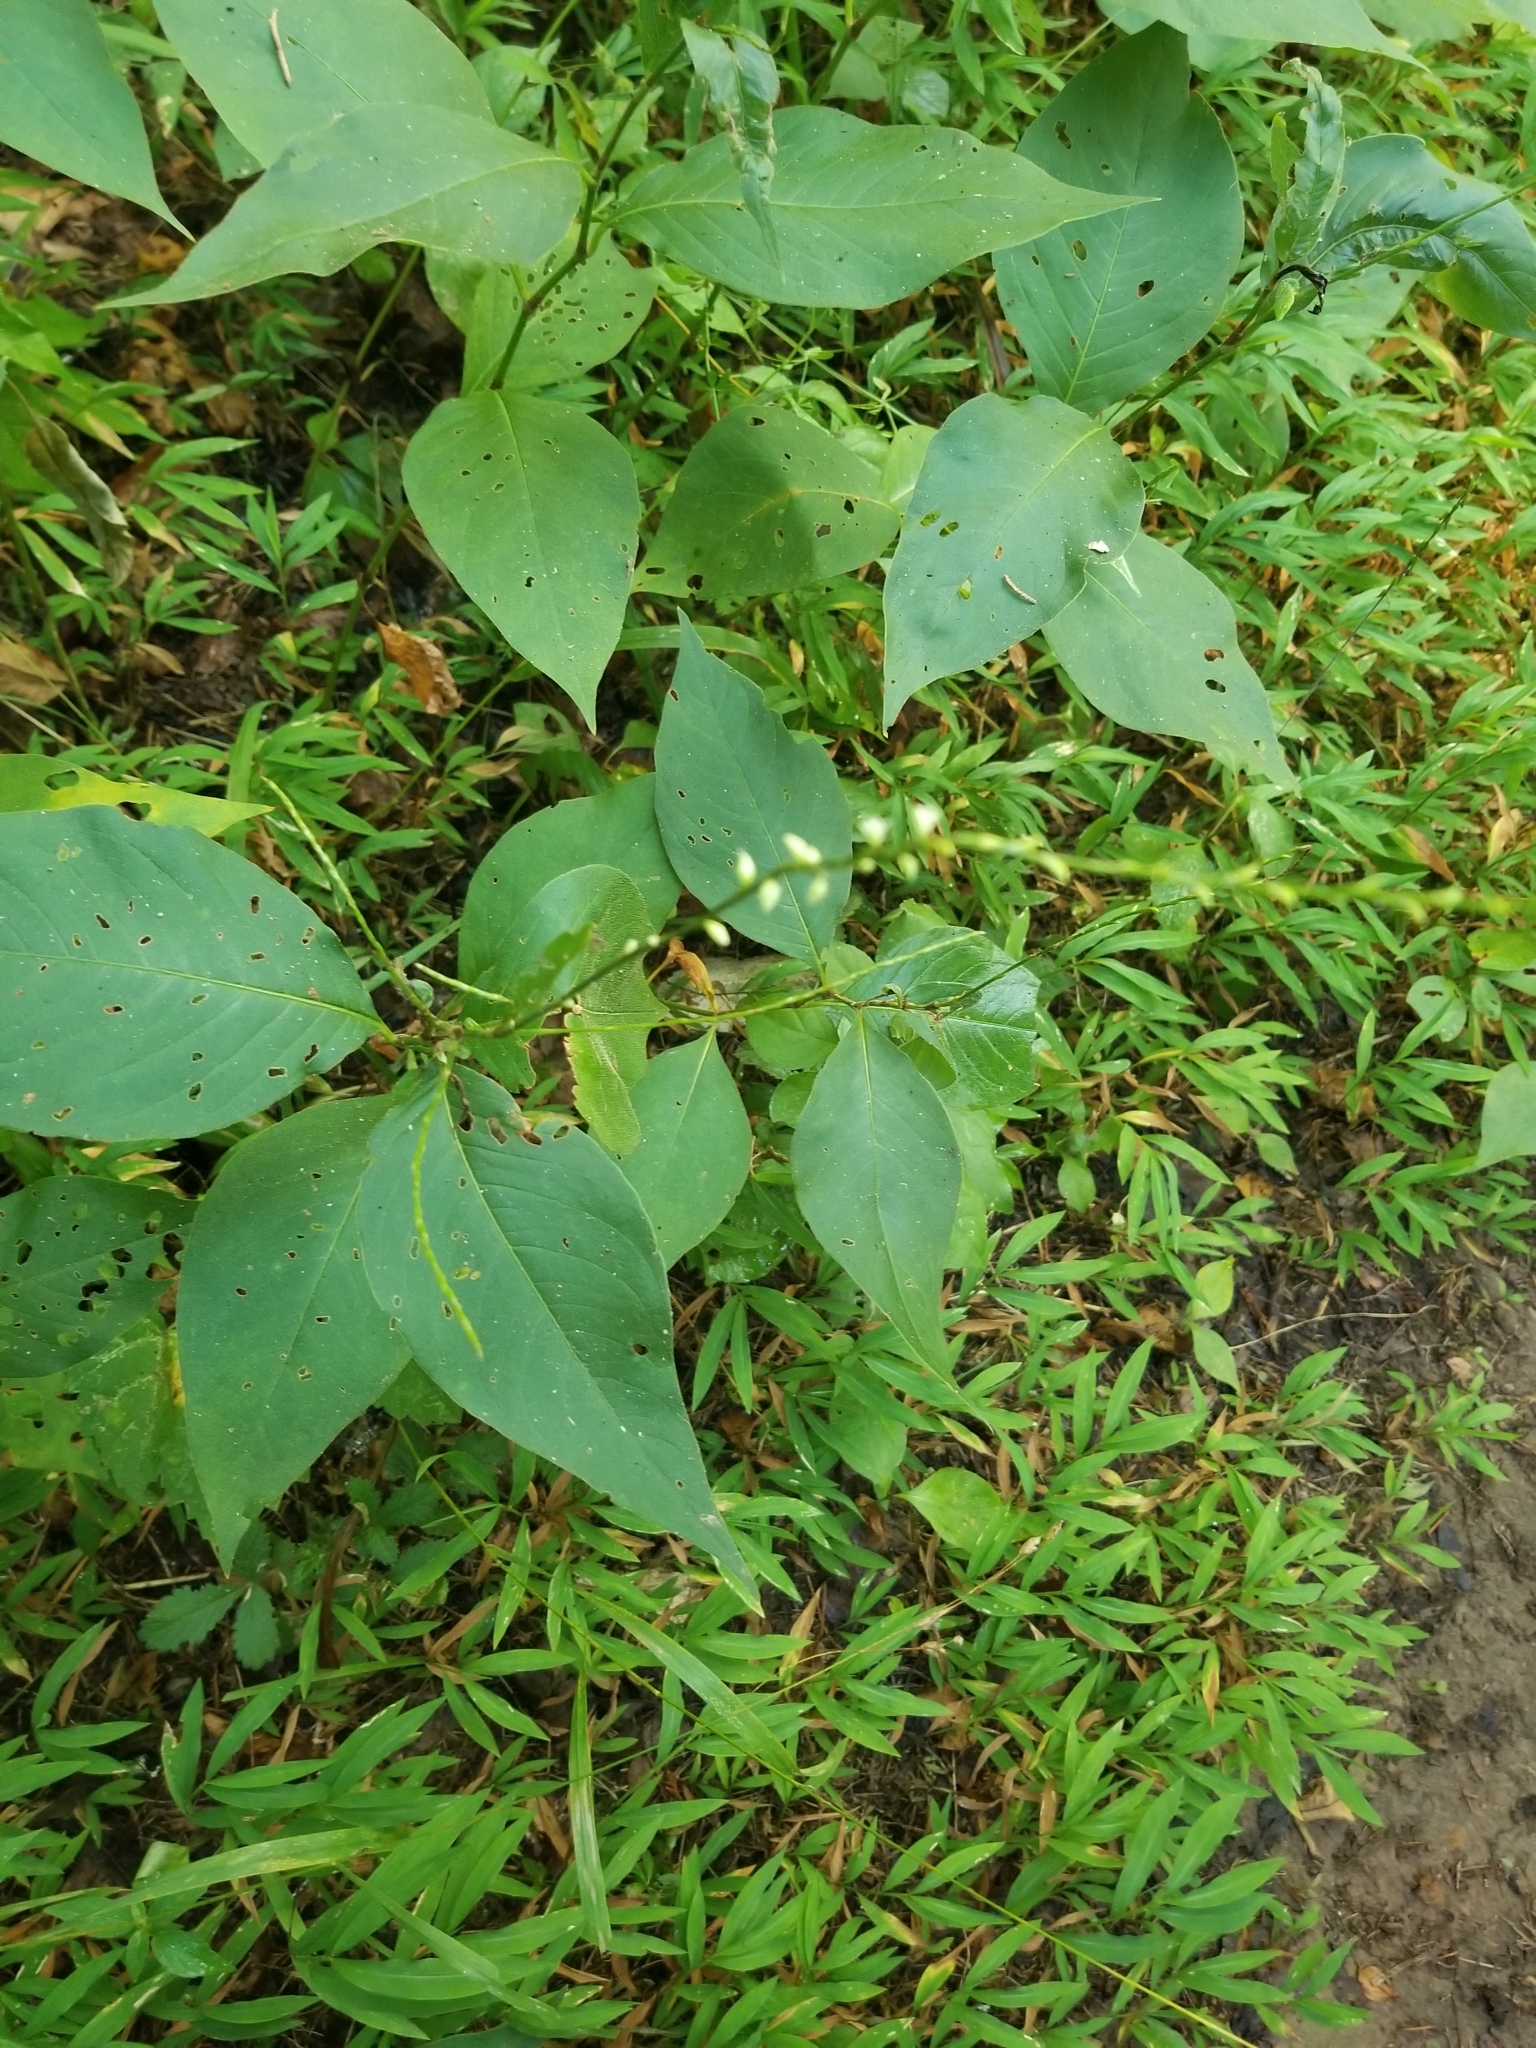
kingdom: Plantae
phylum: Tracheophyta
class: Magnoliopsida
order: Caryophyllales
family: Polygonaceae
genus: Persicaria
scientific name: Persicaria virginiana
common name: Jumpseed
